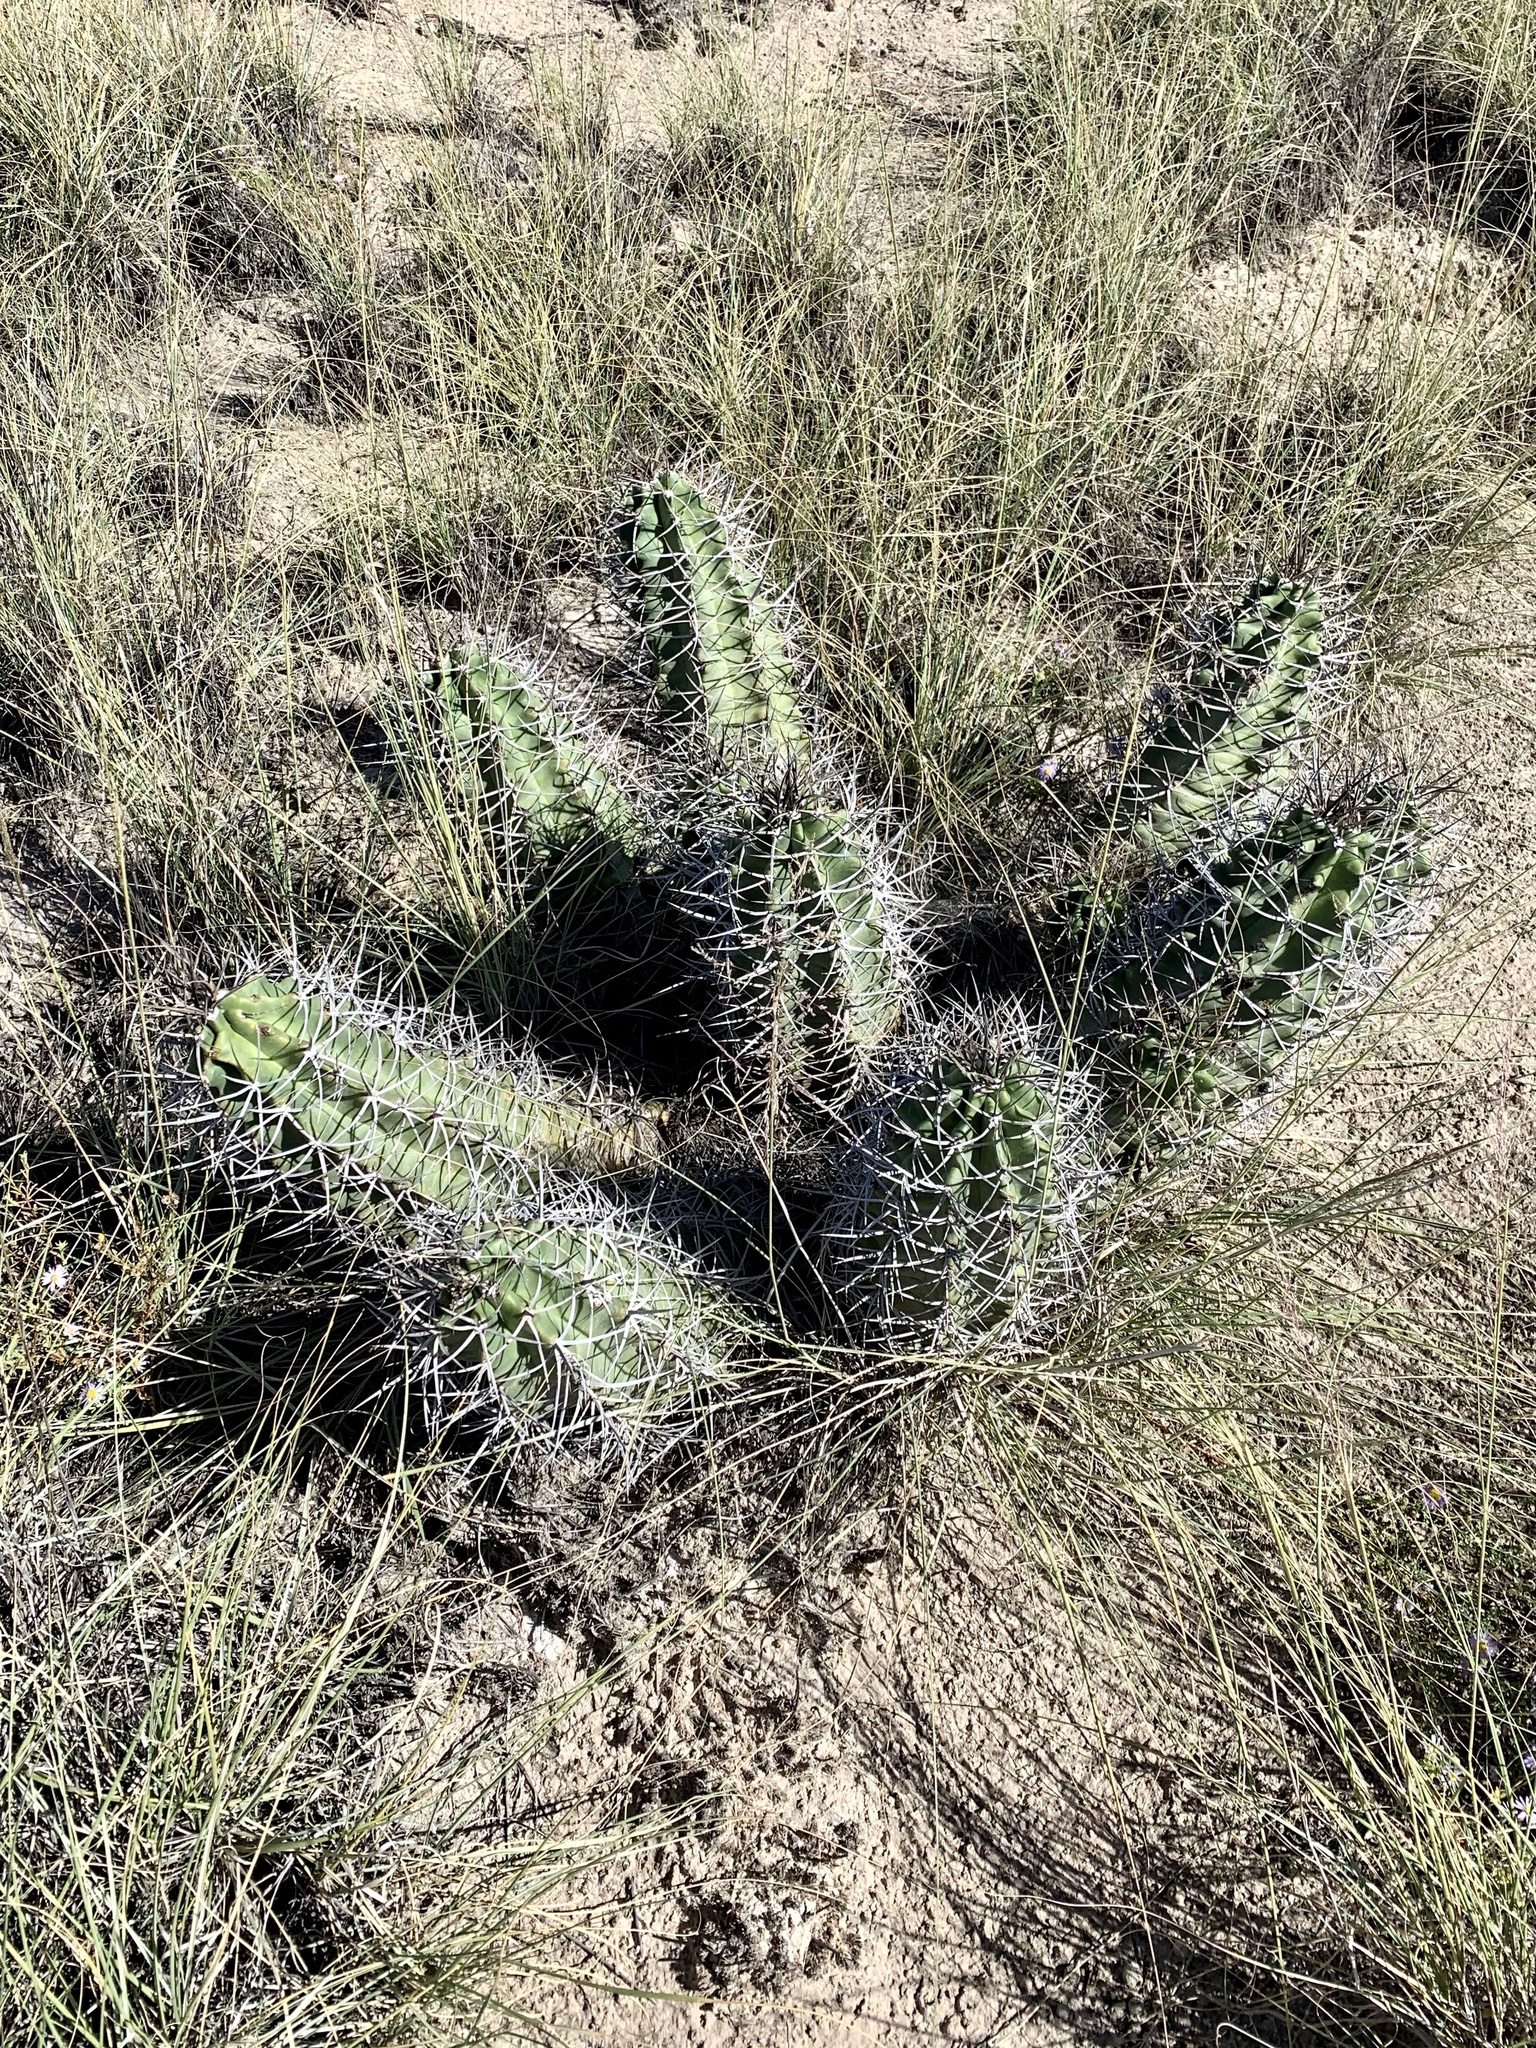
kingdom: Plantae
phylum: Tracheophyta
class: Magnoliopsida
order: Caryophyllales
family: Cactaceae
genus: Echinocereus
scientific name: Echinocereus triglochidiatus
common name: Claretcup hedgehog
